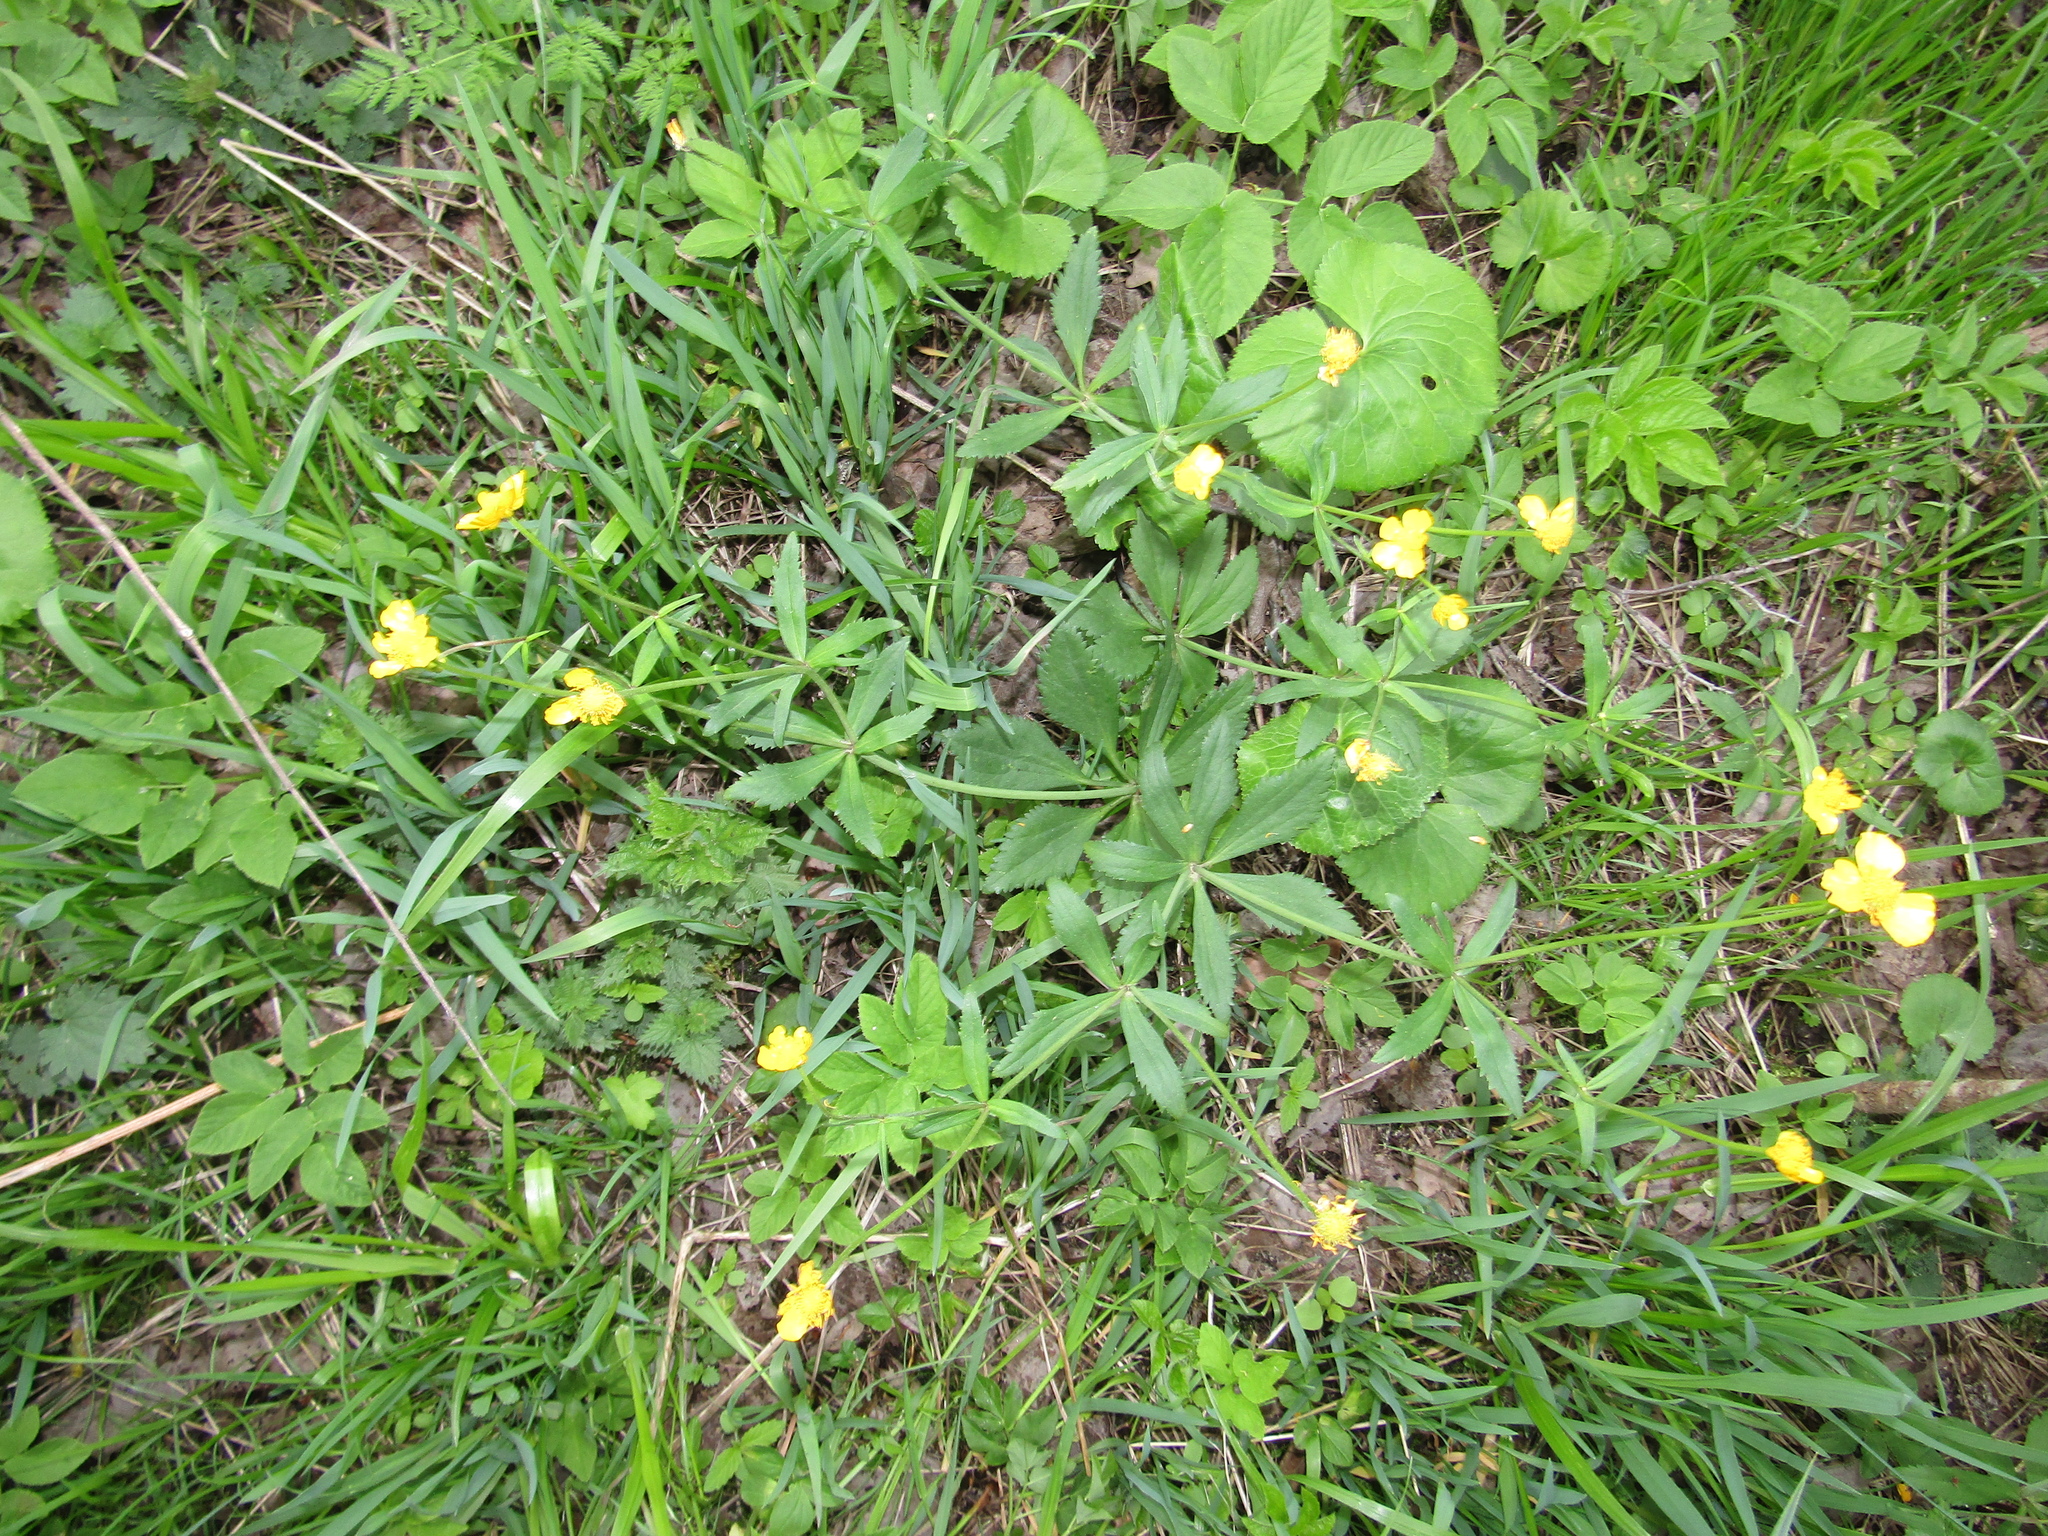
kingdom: Plantae
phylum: Tracheophyta
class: Magnoliopsida
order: Ranunculales
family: Ranunculaceae
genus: Ranunculus
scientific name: Ranunculus cassubicus
